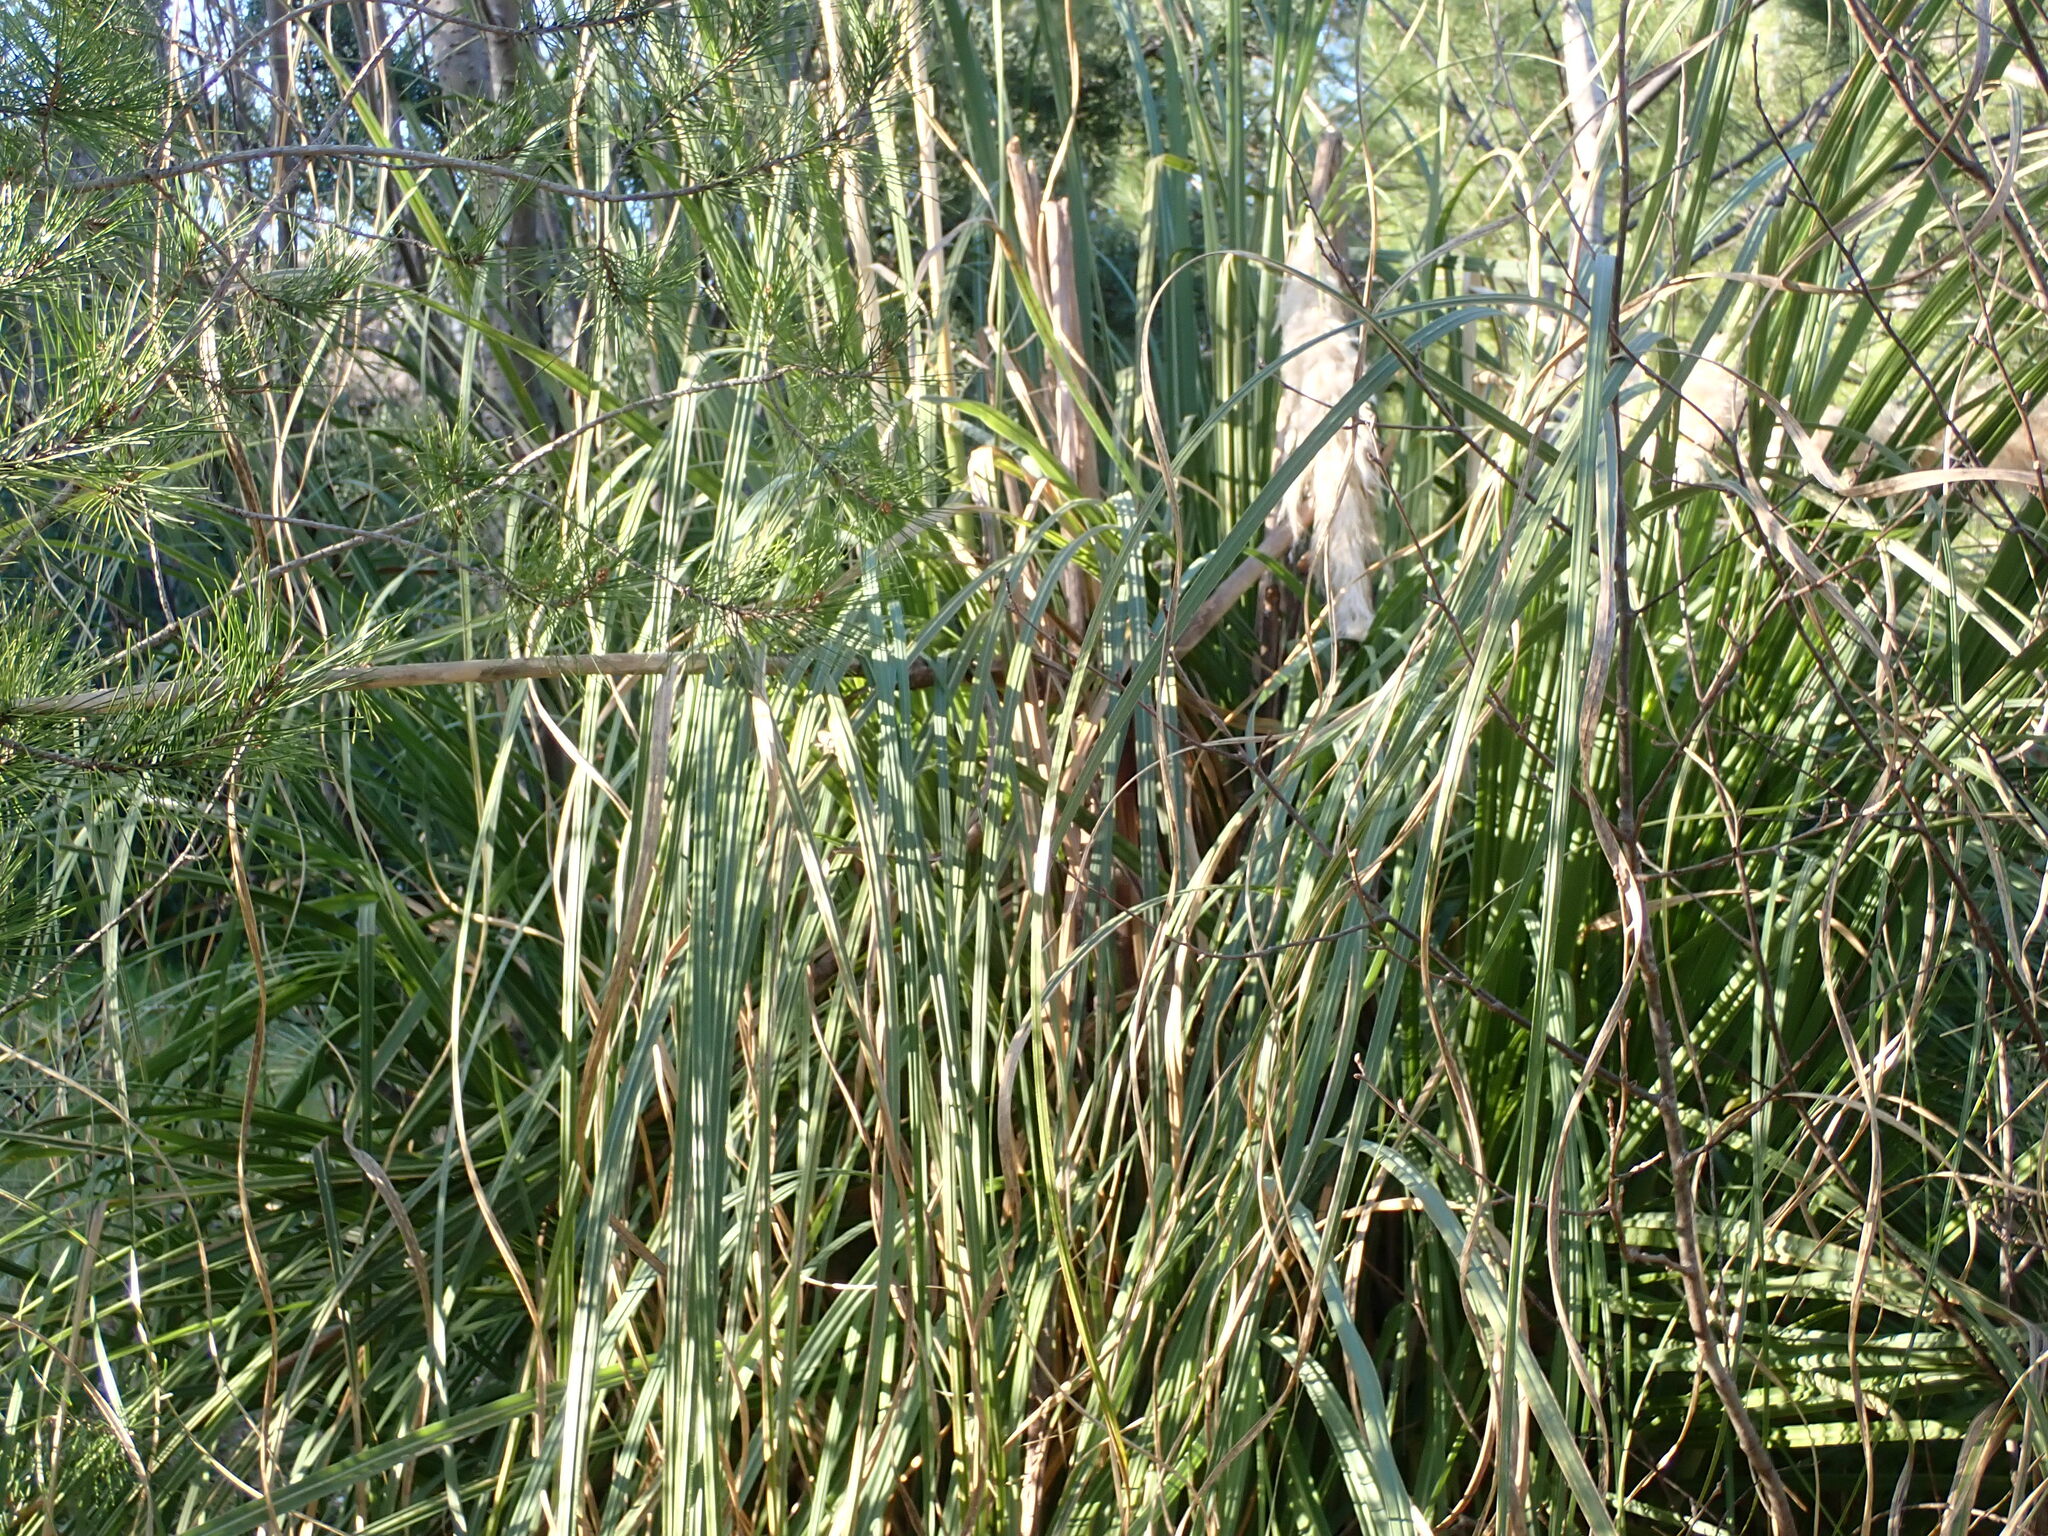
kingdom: Plantae
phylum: Tracheophyta
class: Liliopsida
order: Poales
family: Poaceae
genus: Cortaderia
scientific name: Cortaderia selloana
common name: Uruguayan pampas grass
